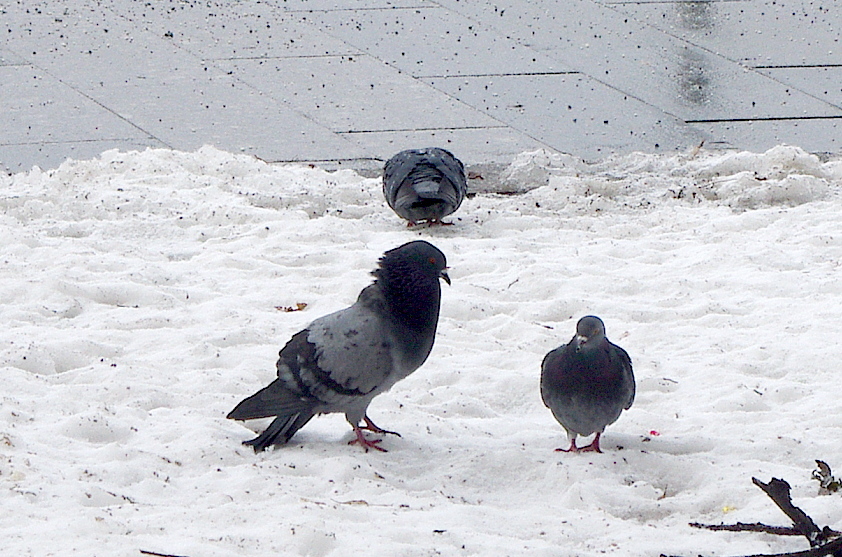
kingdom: Animalia
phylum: Chordata
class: Aves
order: Columbiformes
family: Columbidae
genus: Columba
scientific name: Columba livia
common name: Rock pigeon
